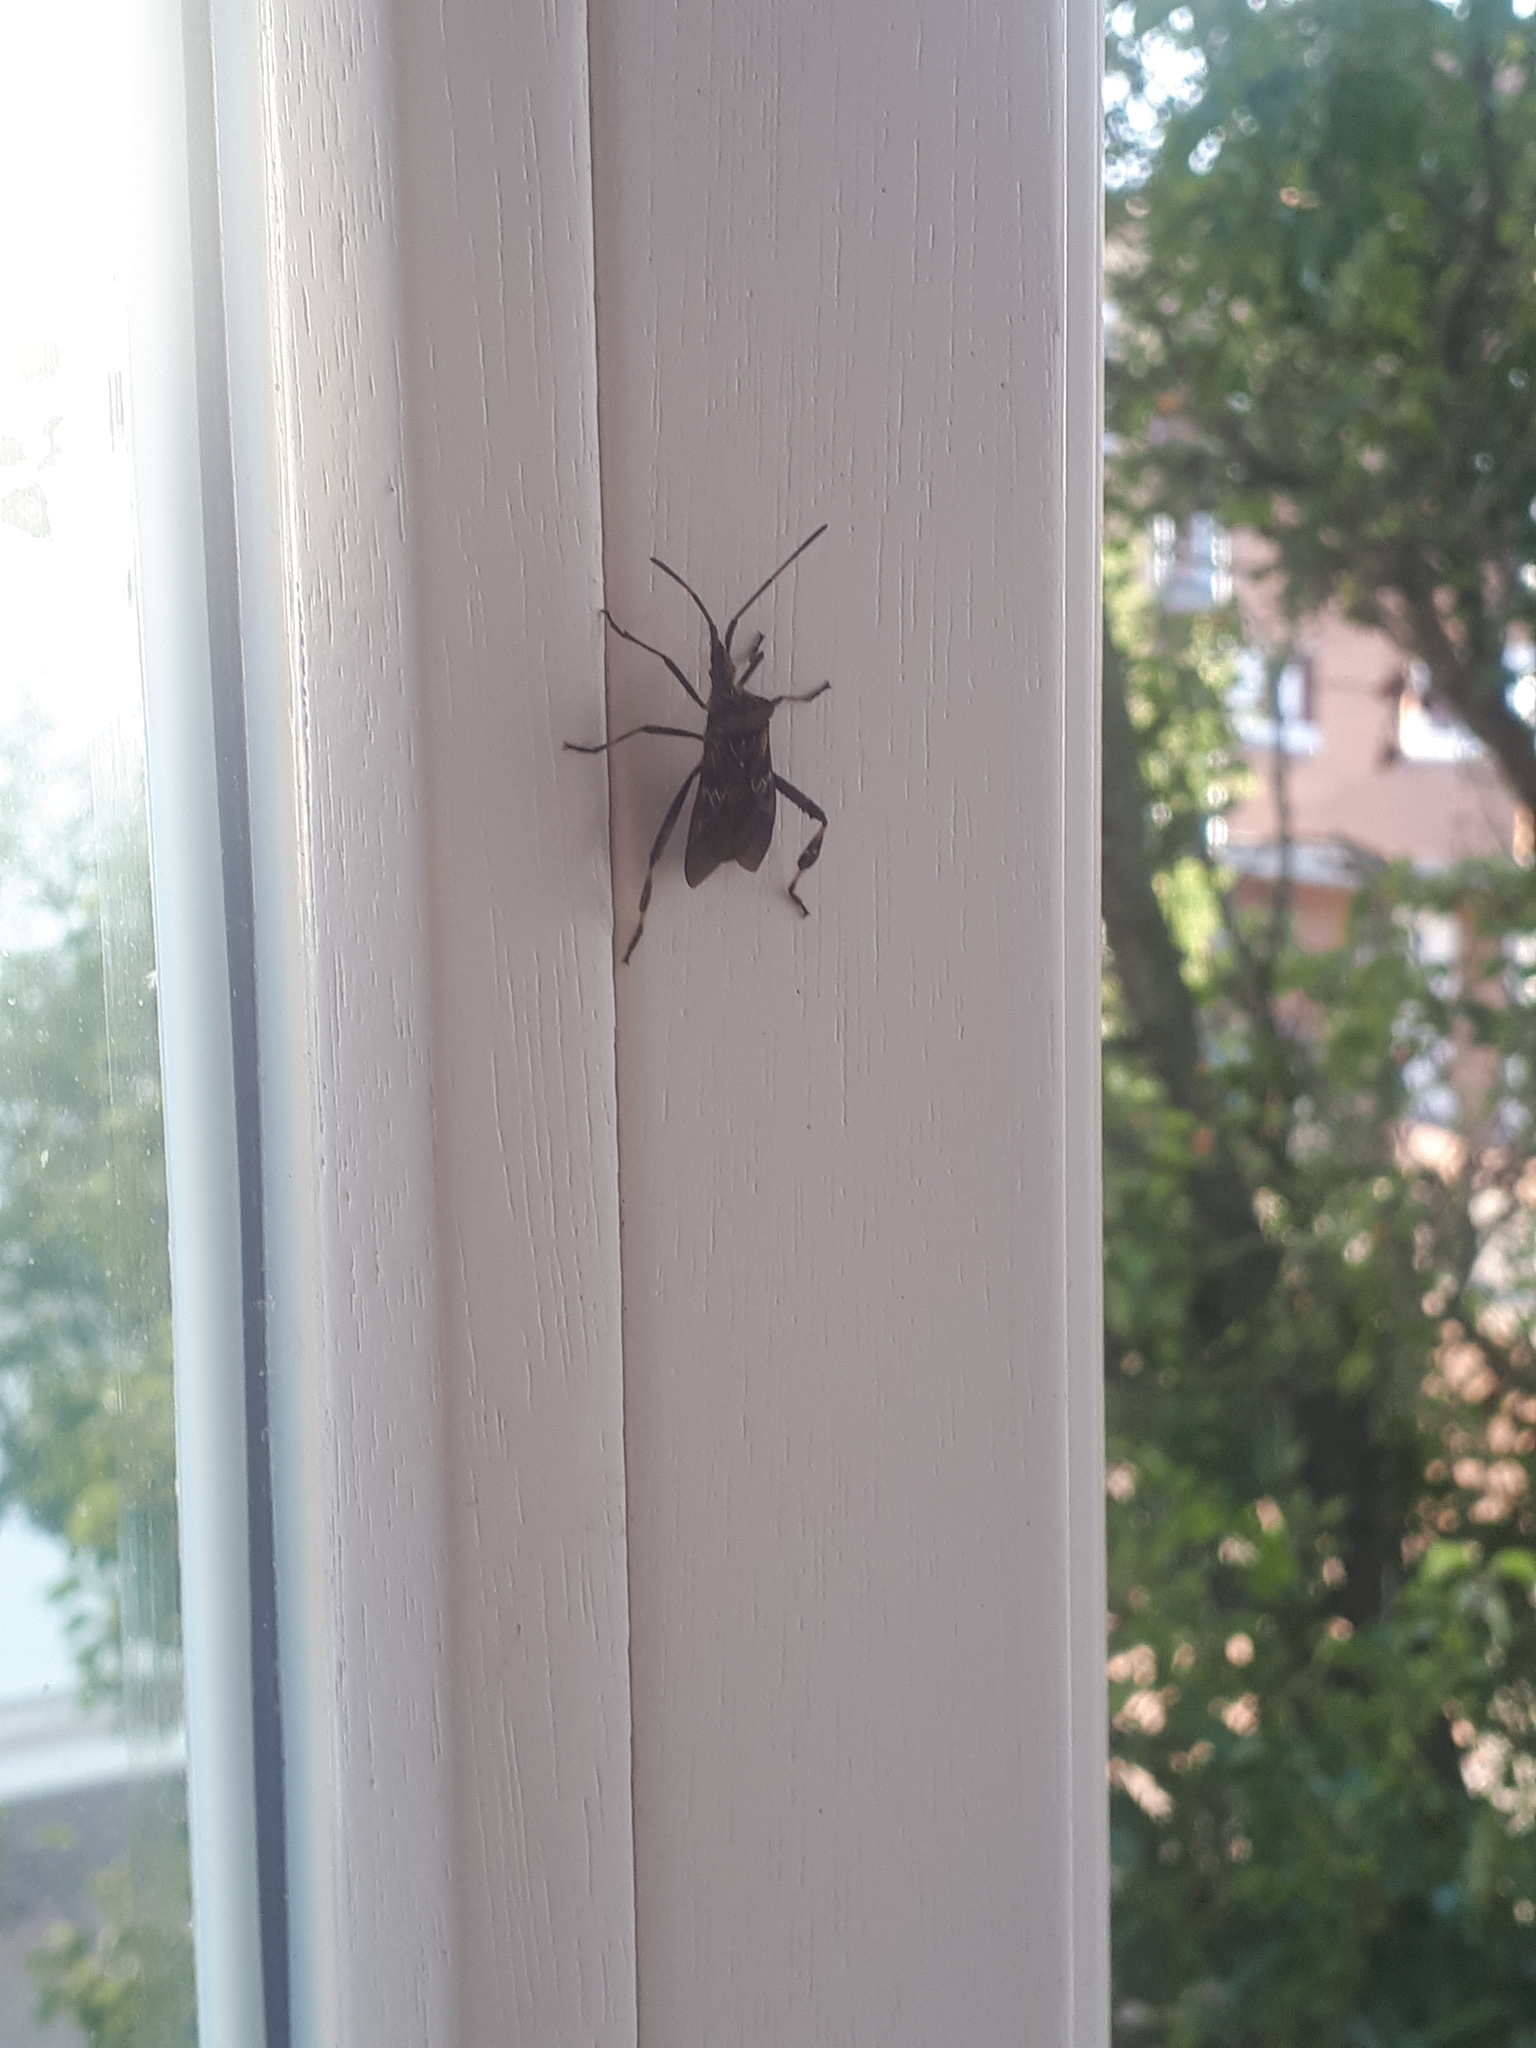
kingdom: Animalia
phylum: Arthropoda
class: Insecta
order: Hemiptera
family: Coreidae
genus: Leptoglossus
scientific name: Leptoglossus occidentalis
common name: Western conifer-seed bug
